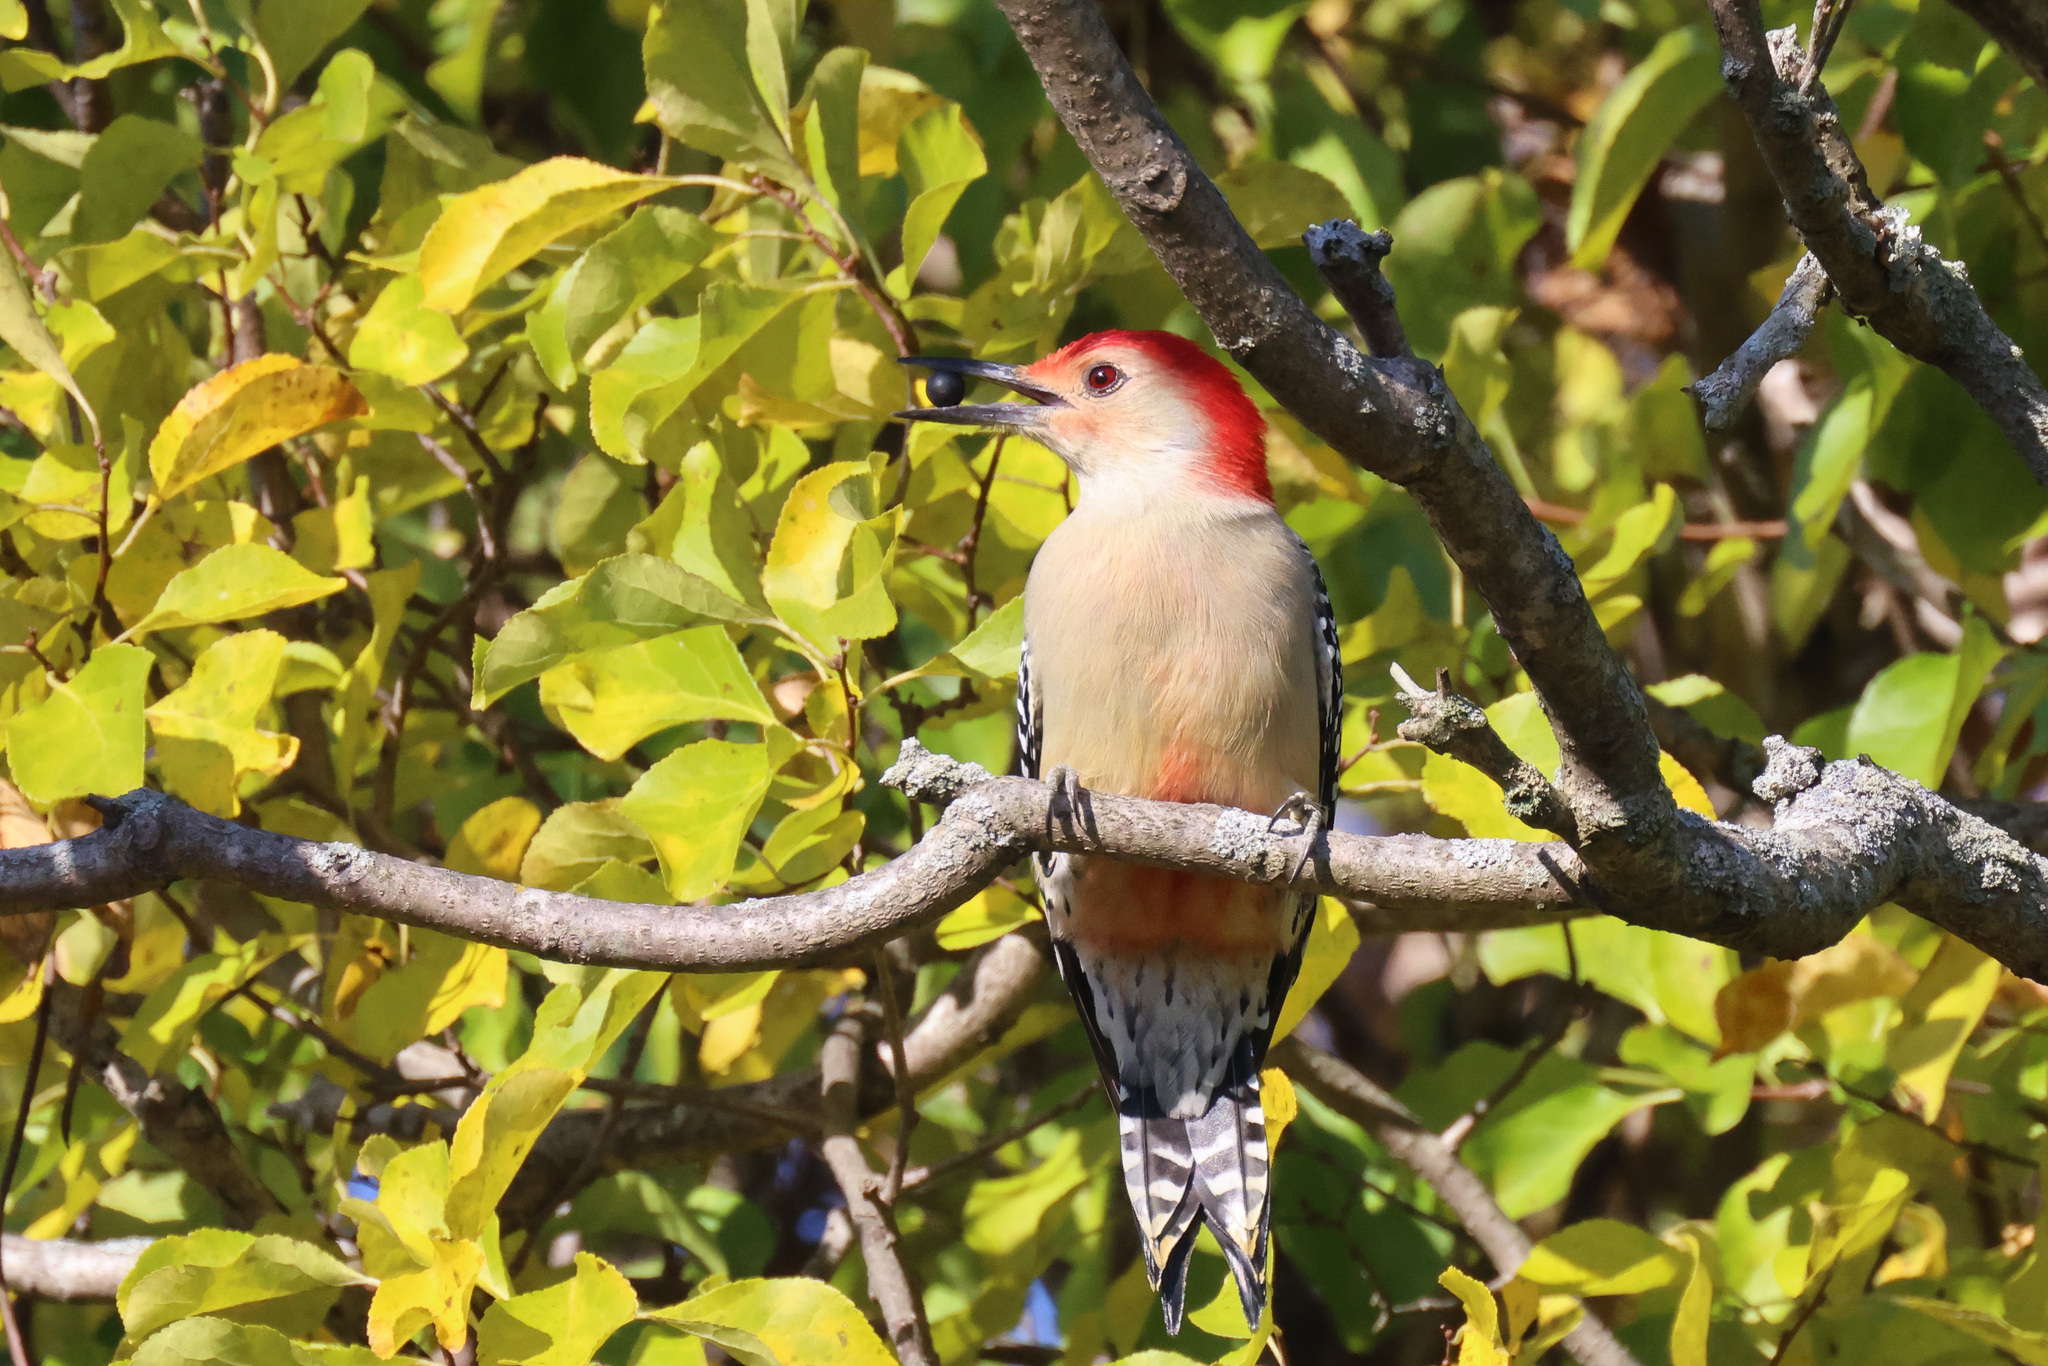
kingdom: Animalia
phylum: Chordata
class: Aves
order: Piciformes
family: Picidae
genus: Melanerpes
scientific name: Melanerpes carolinus
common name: Red-bellied woodpecker
